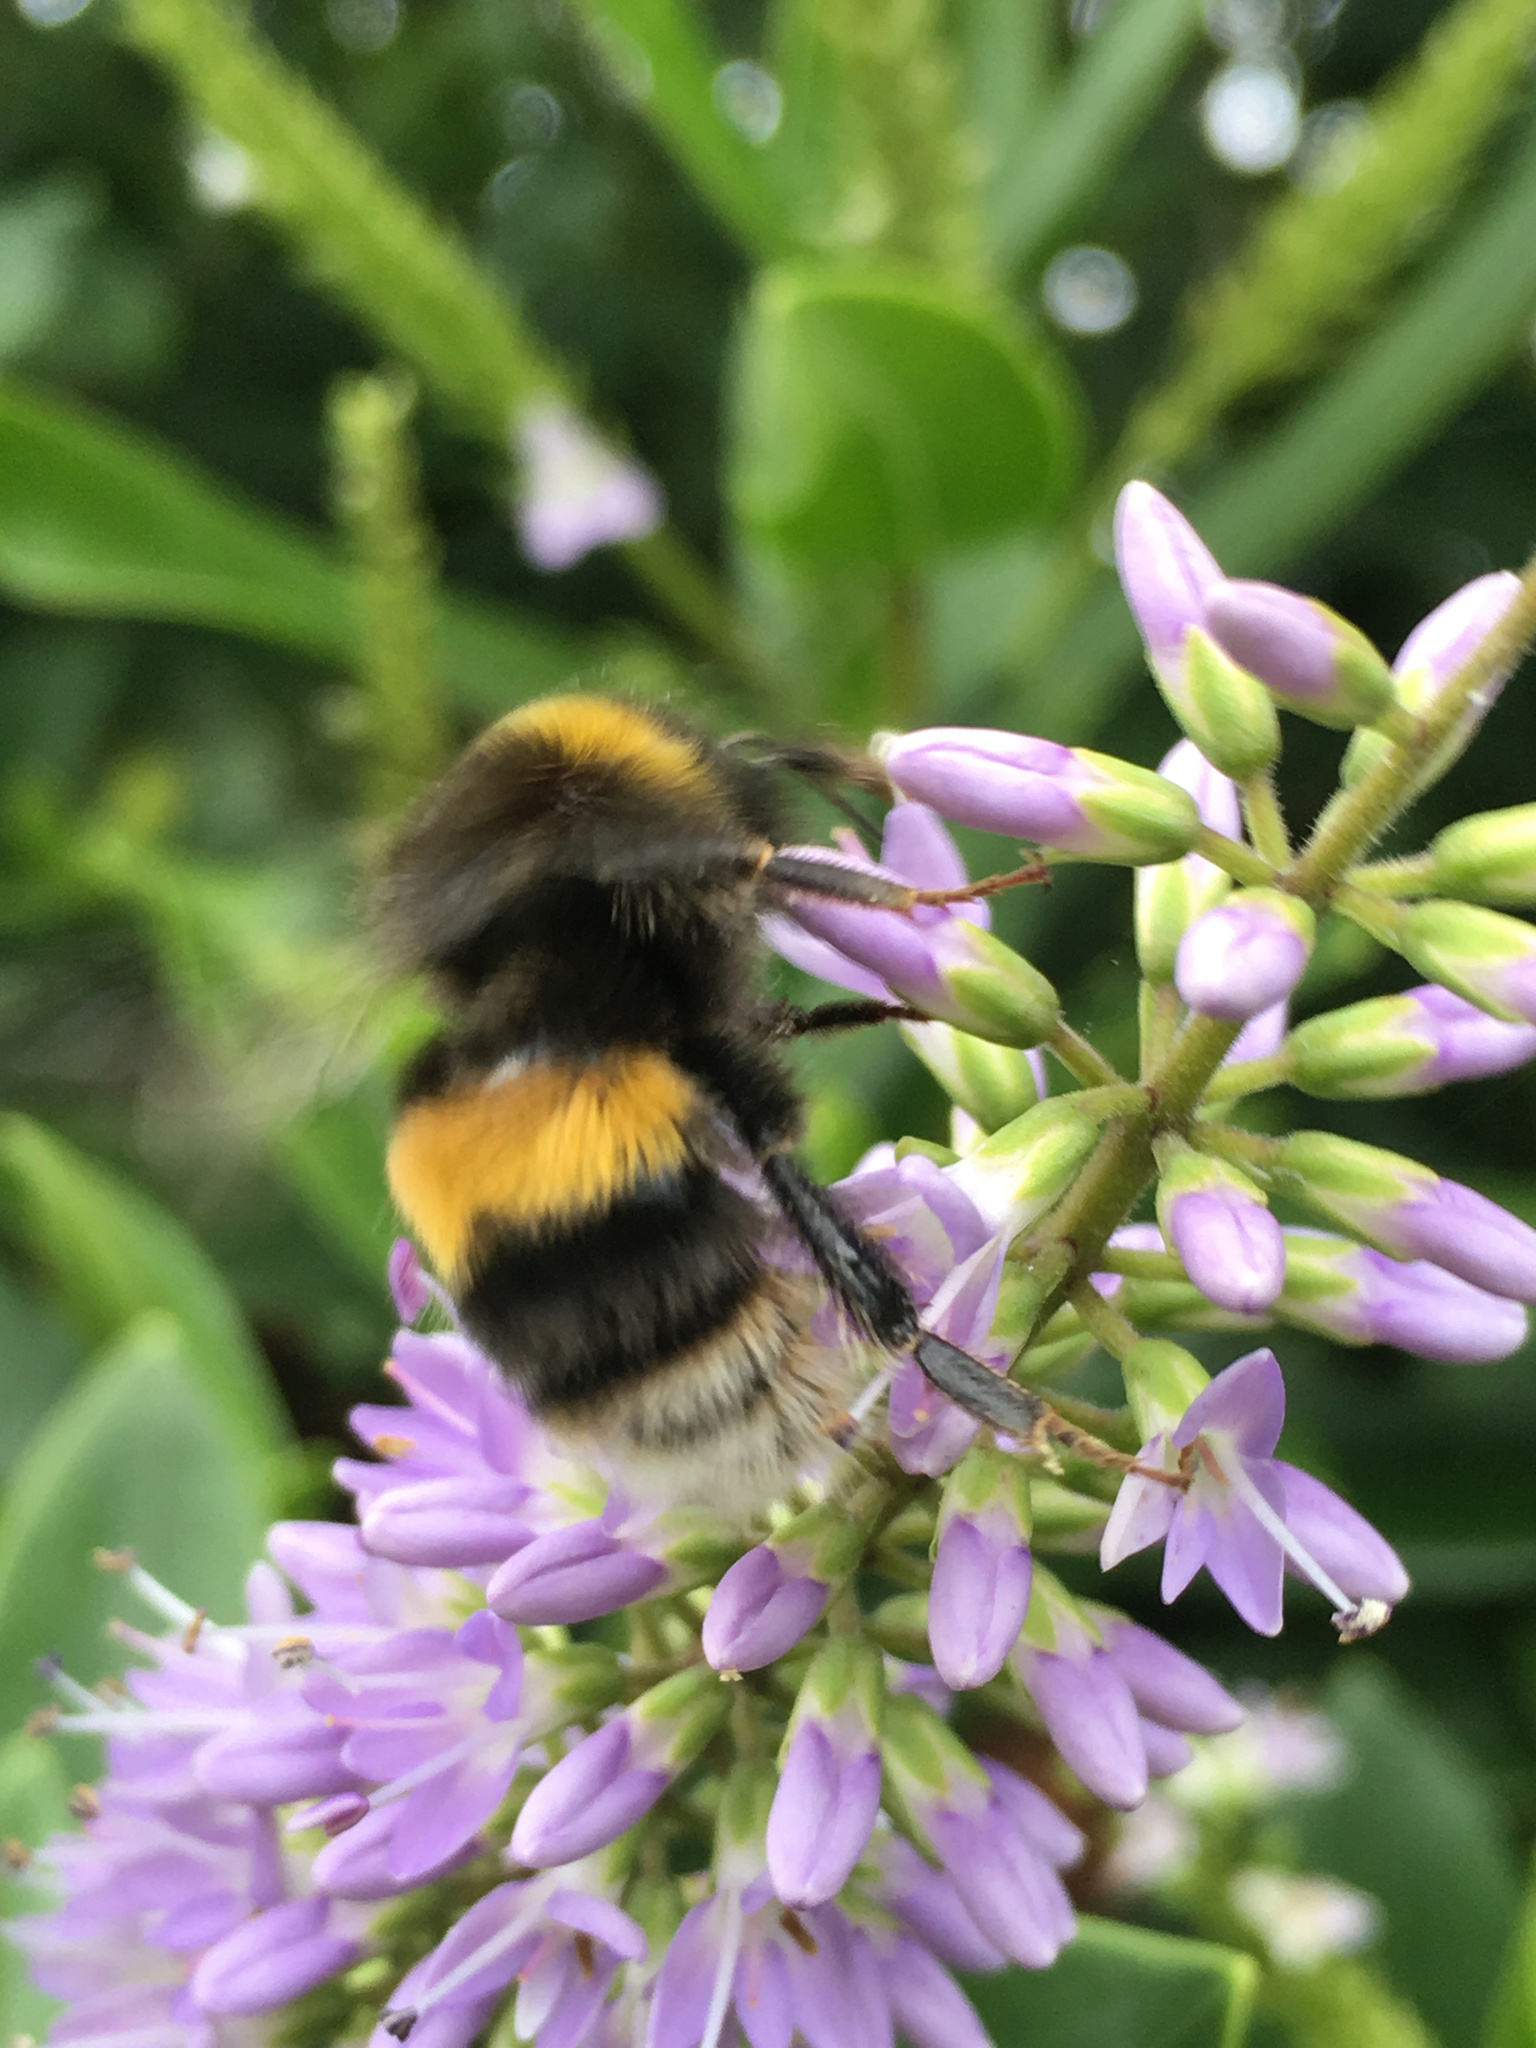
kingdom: Animalia
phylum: Arthropoda
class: Insecta
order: Hymenoptera
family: Apidae
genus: Bombus
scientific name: Bombus terrestris
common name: Buff-tailed bumblebee
